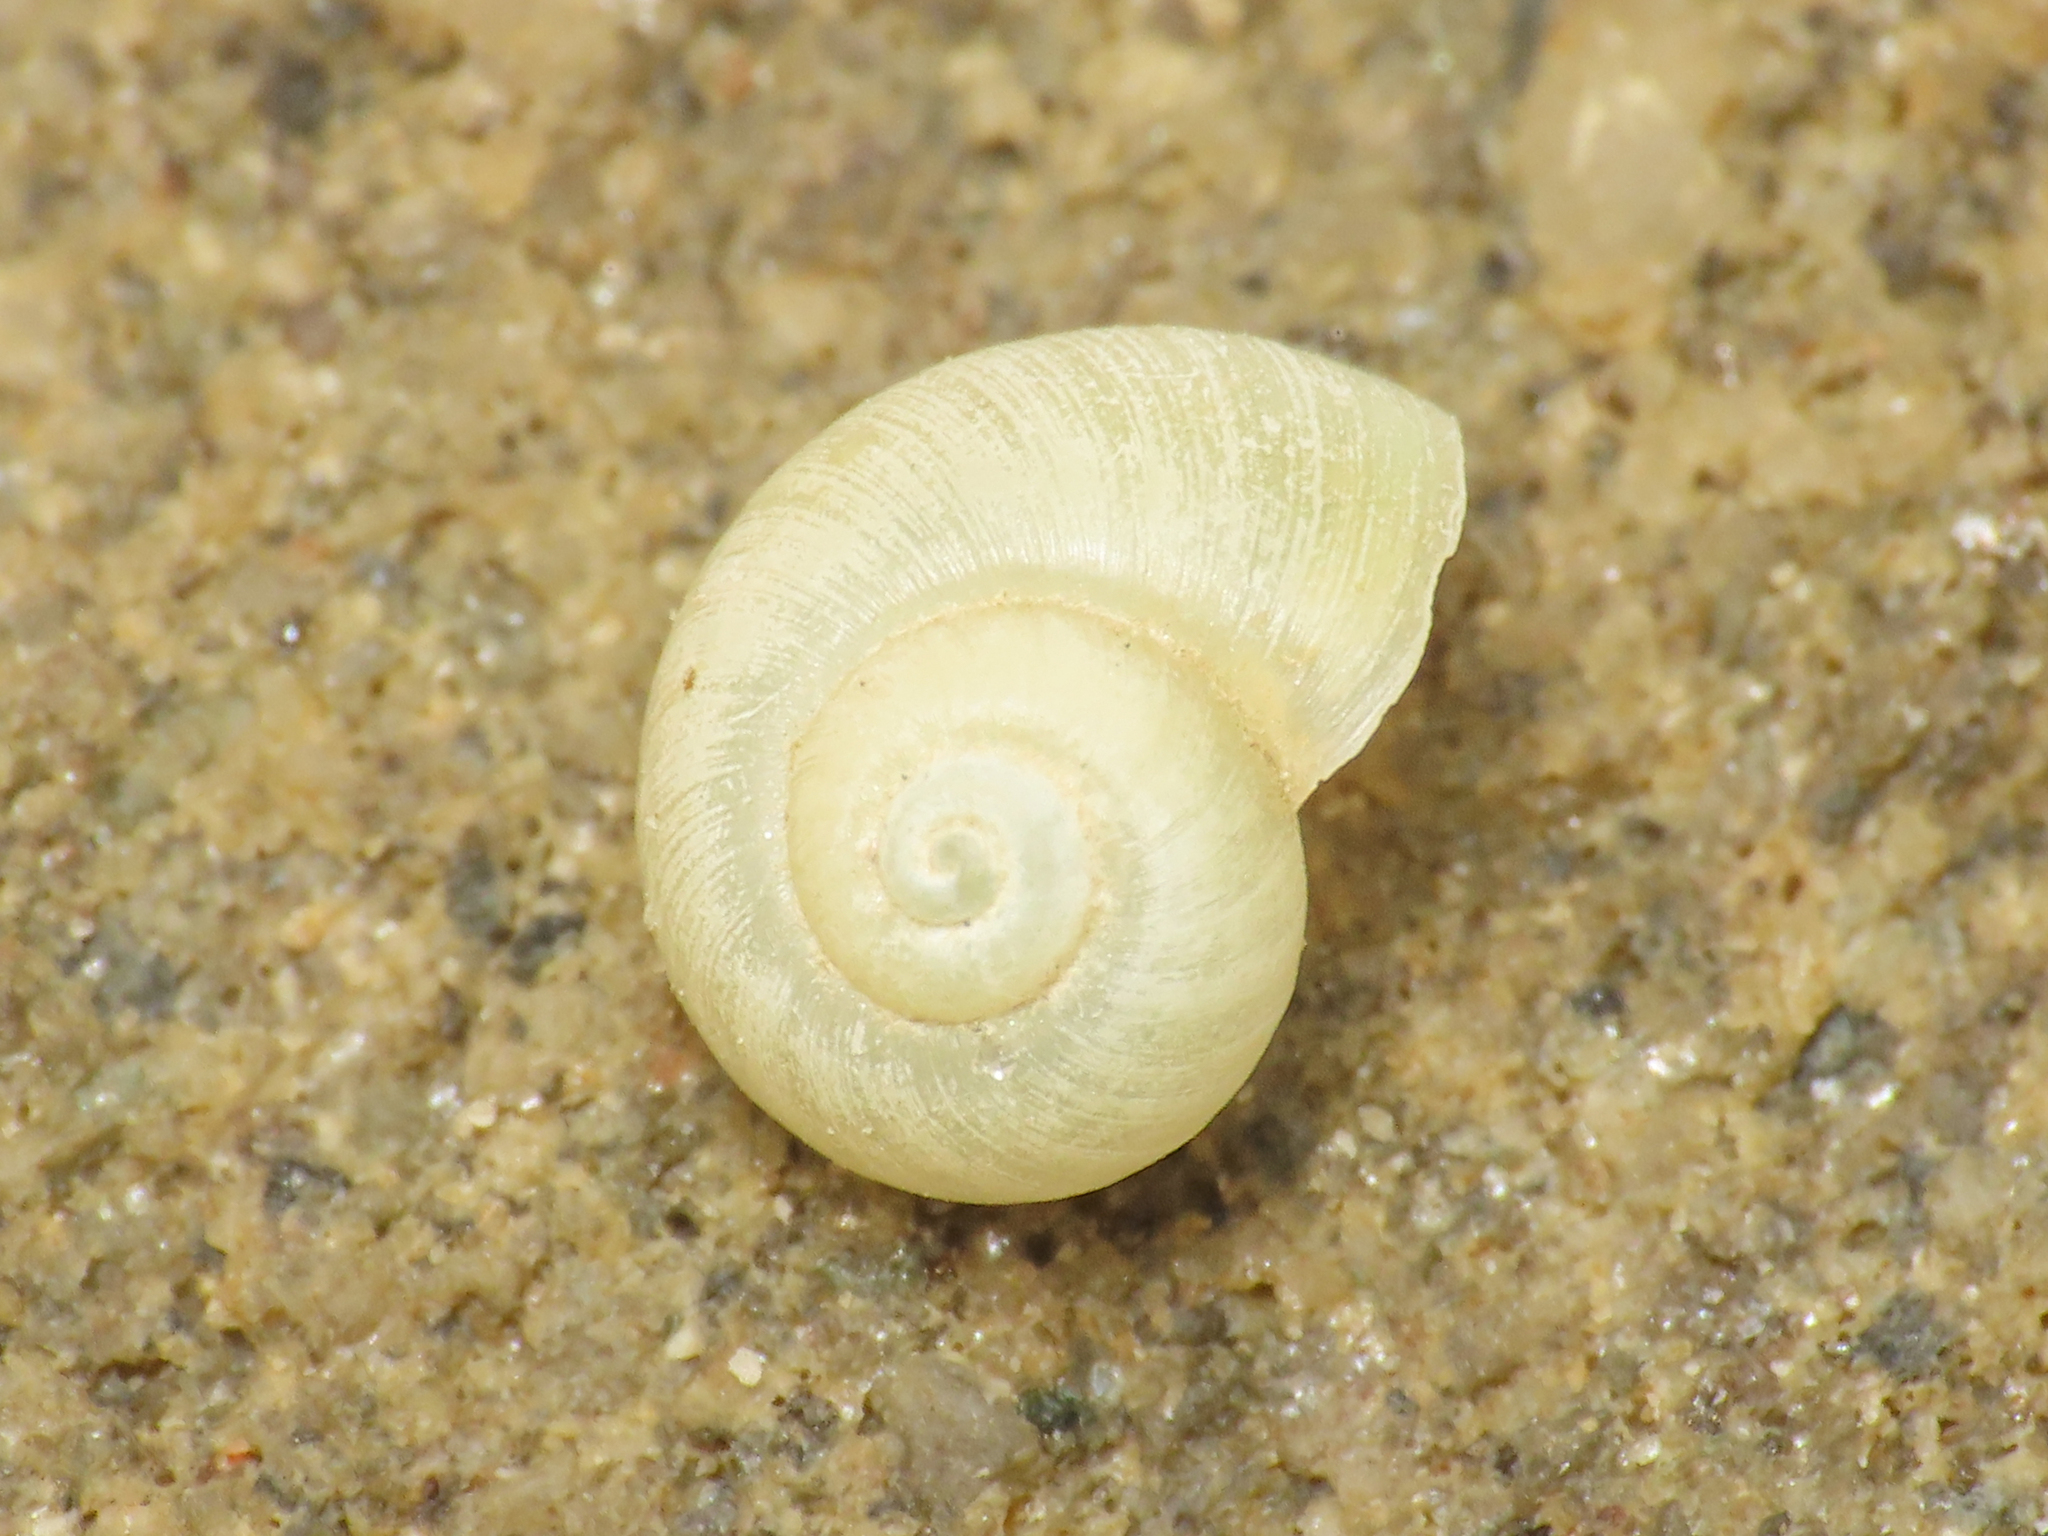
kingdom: Animalia
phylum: Mollusca
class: Gastropoda
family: Valvatidae
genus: Valvata
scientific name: Valvata piscinalis
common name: European valve snail
